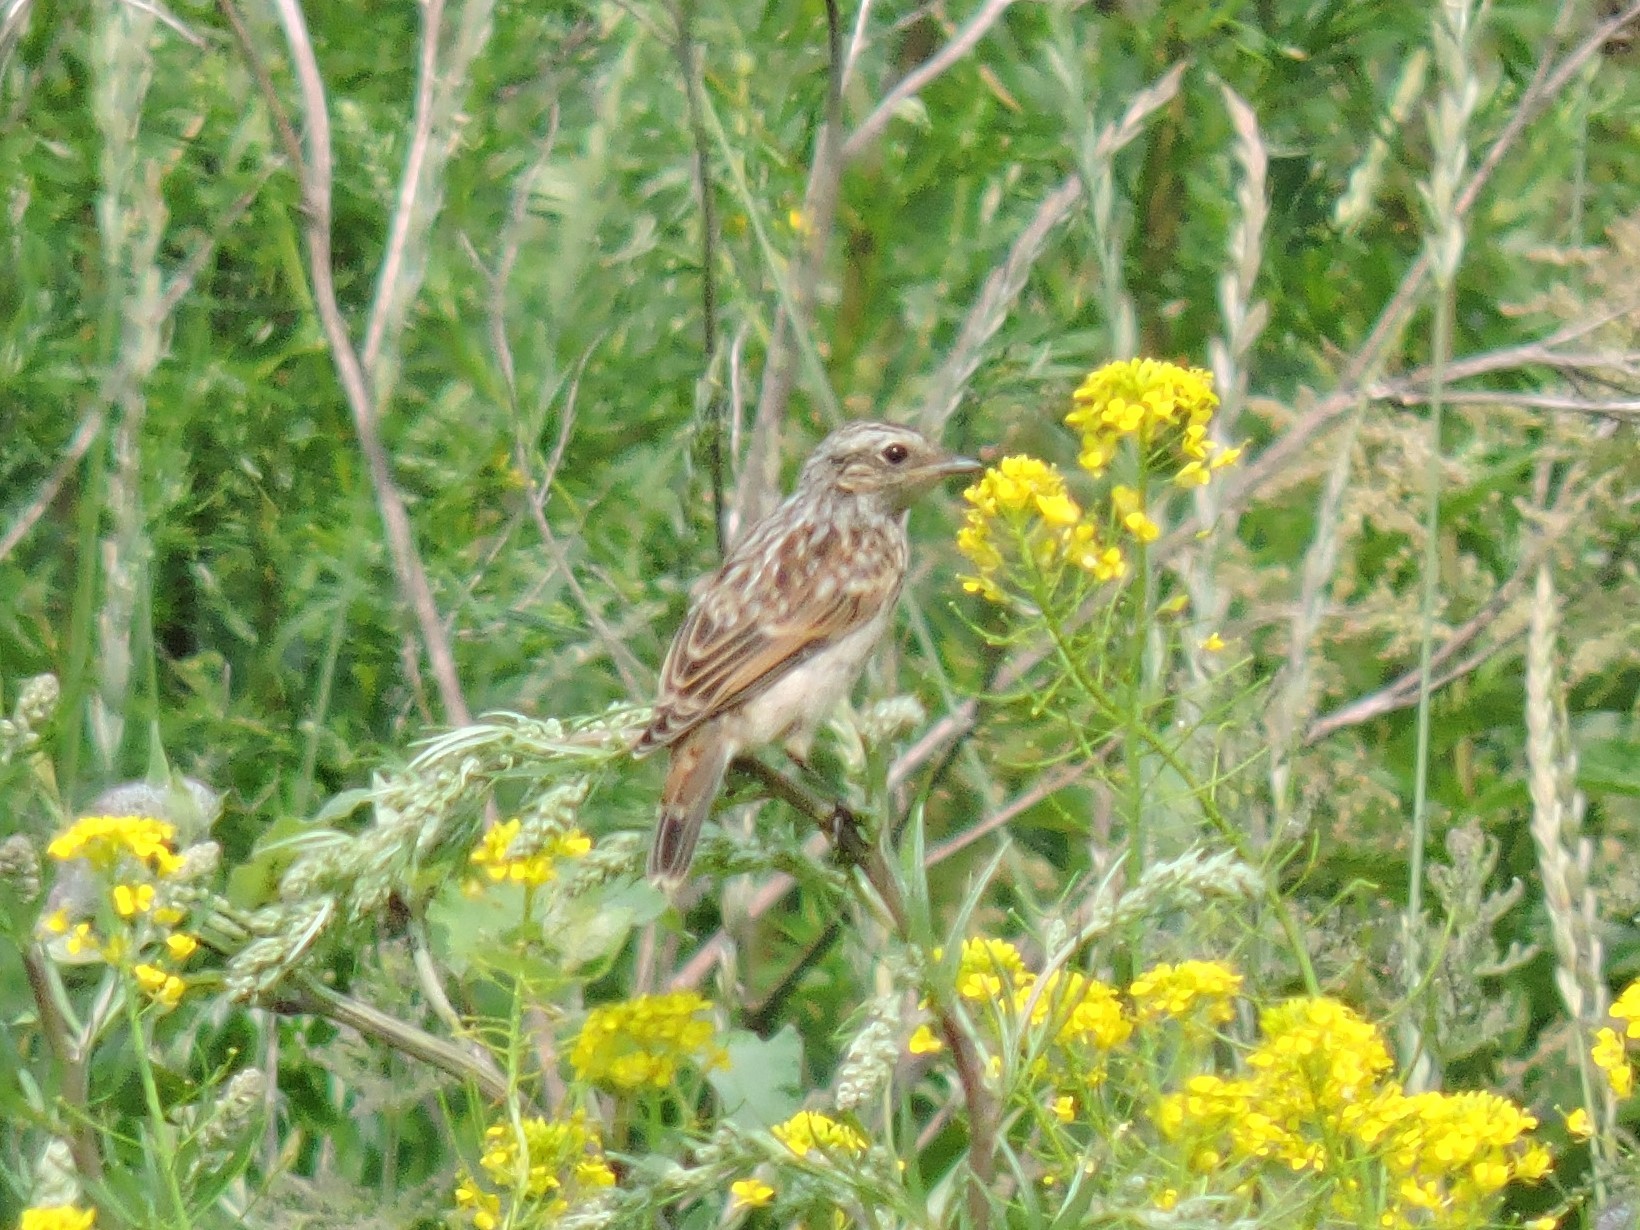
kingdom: Animalia
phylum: Chordata
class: Aves
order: Passeriformes
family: Muscicapidae
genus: Saxicola
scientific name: Saxicola rubetra
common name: Whinchat
